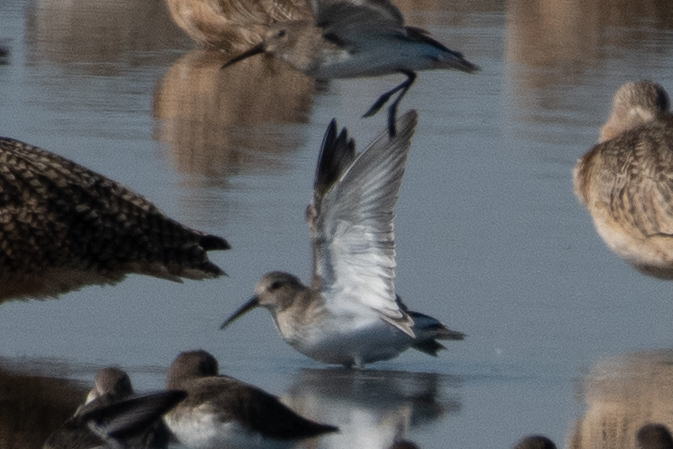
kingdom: Animalia
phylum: Chordata
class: Aves
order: Charadriiformes
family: Scolopacidae
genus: Calidris
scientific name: Calidris alpina
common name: Dunlin
